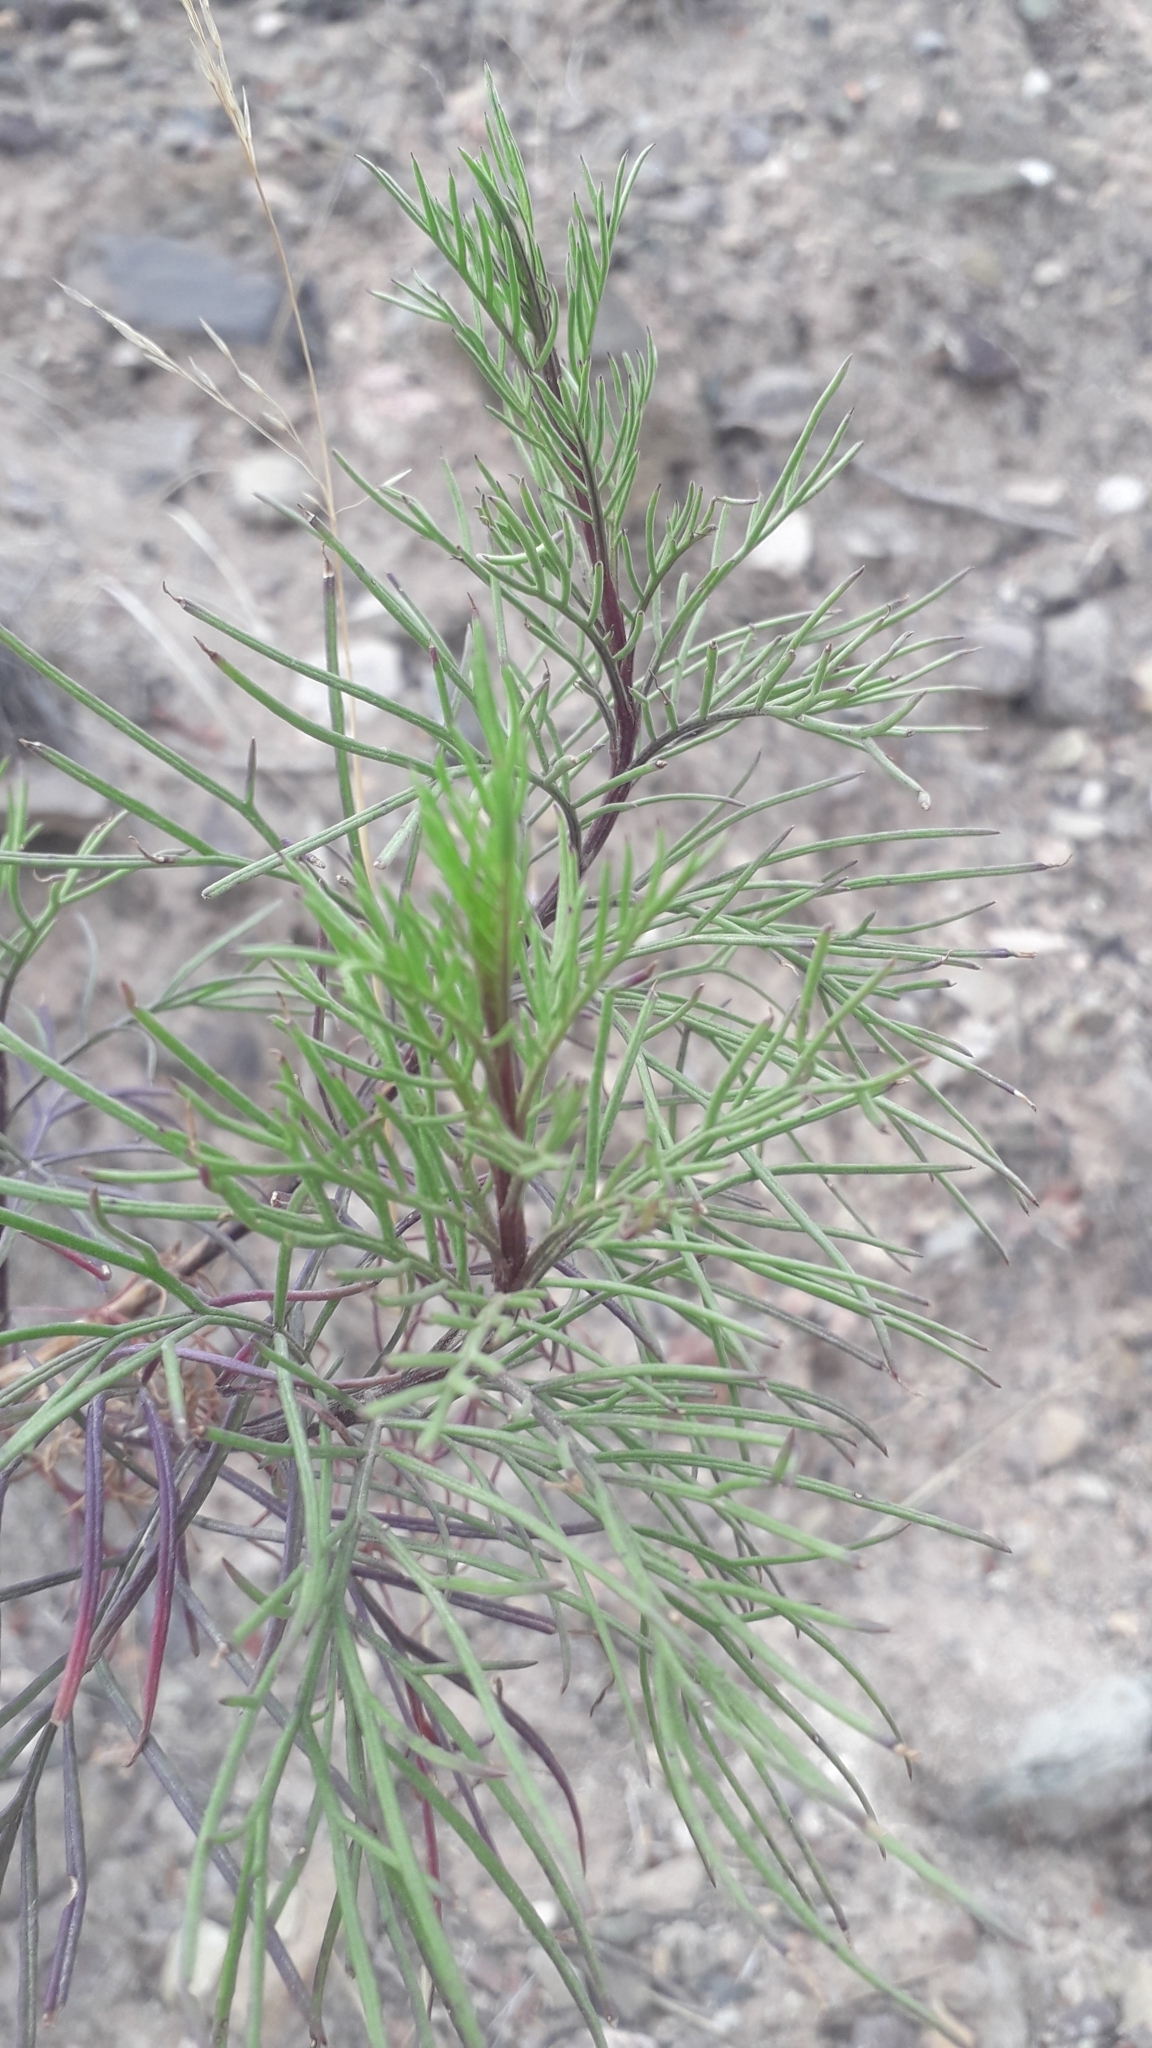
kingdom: Plantae
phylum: Tracheophyta
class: Magnoliopsida
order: Asterales
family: Asteraceae
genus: Senecio
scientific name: Senecio subulatus
